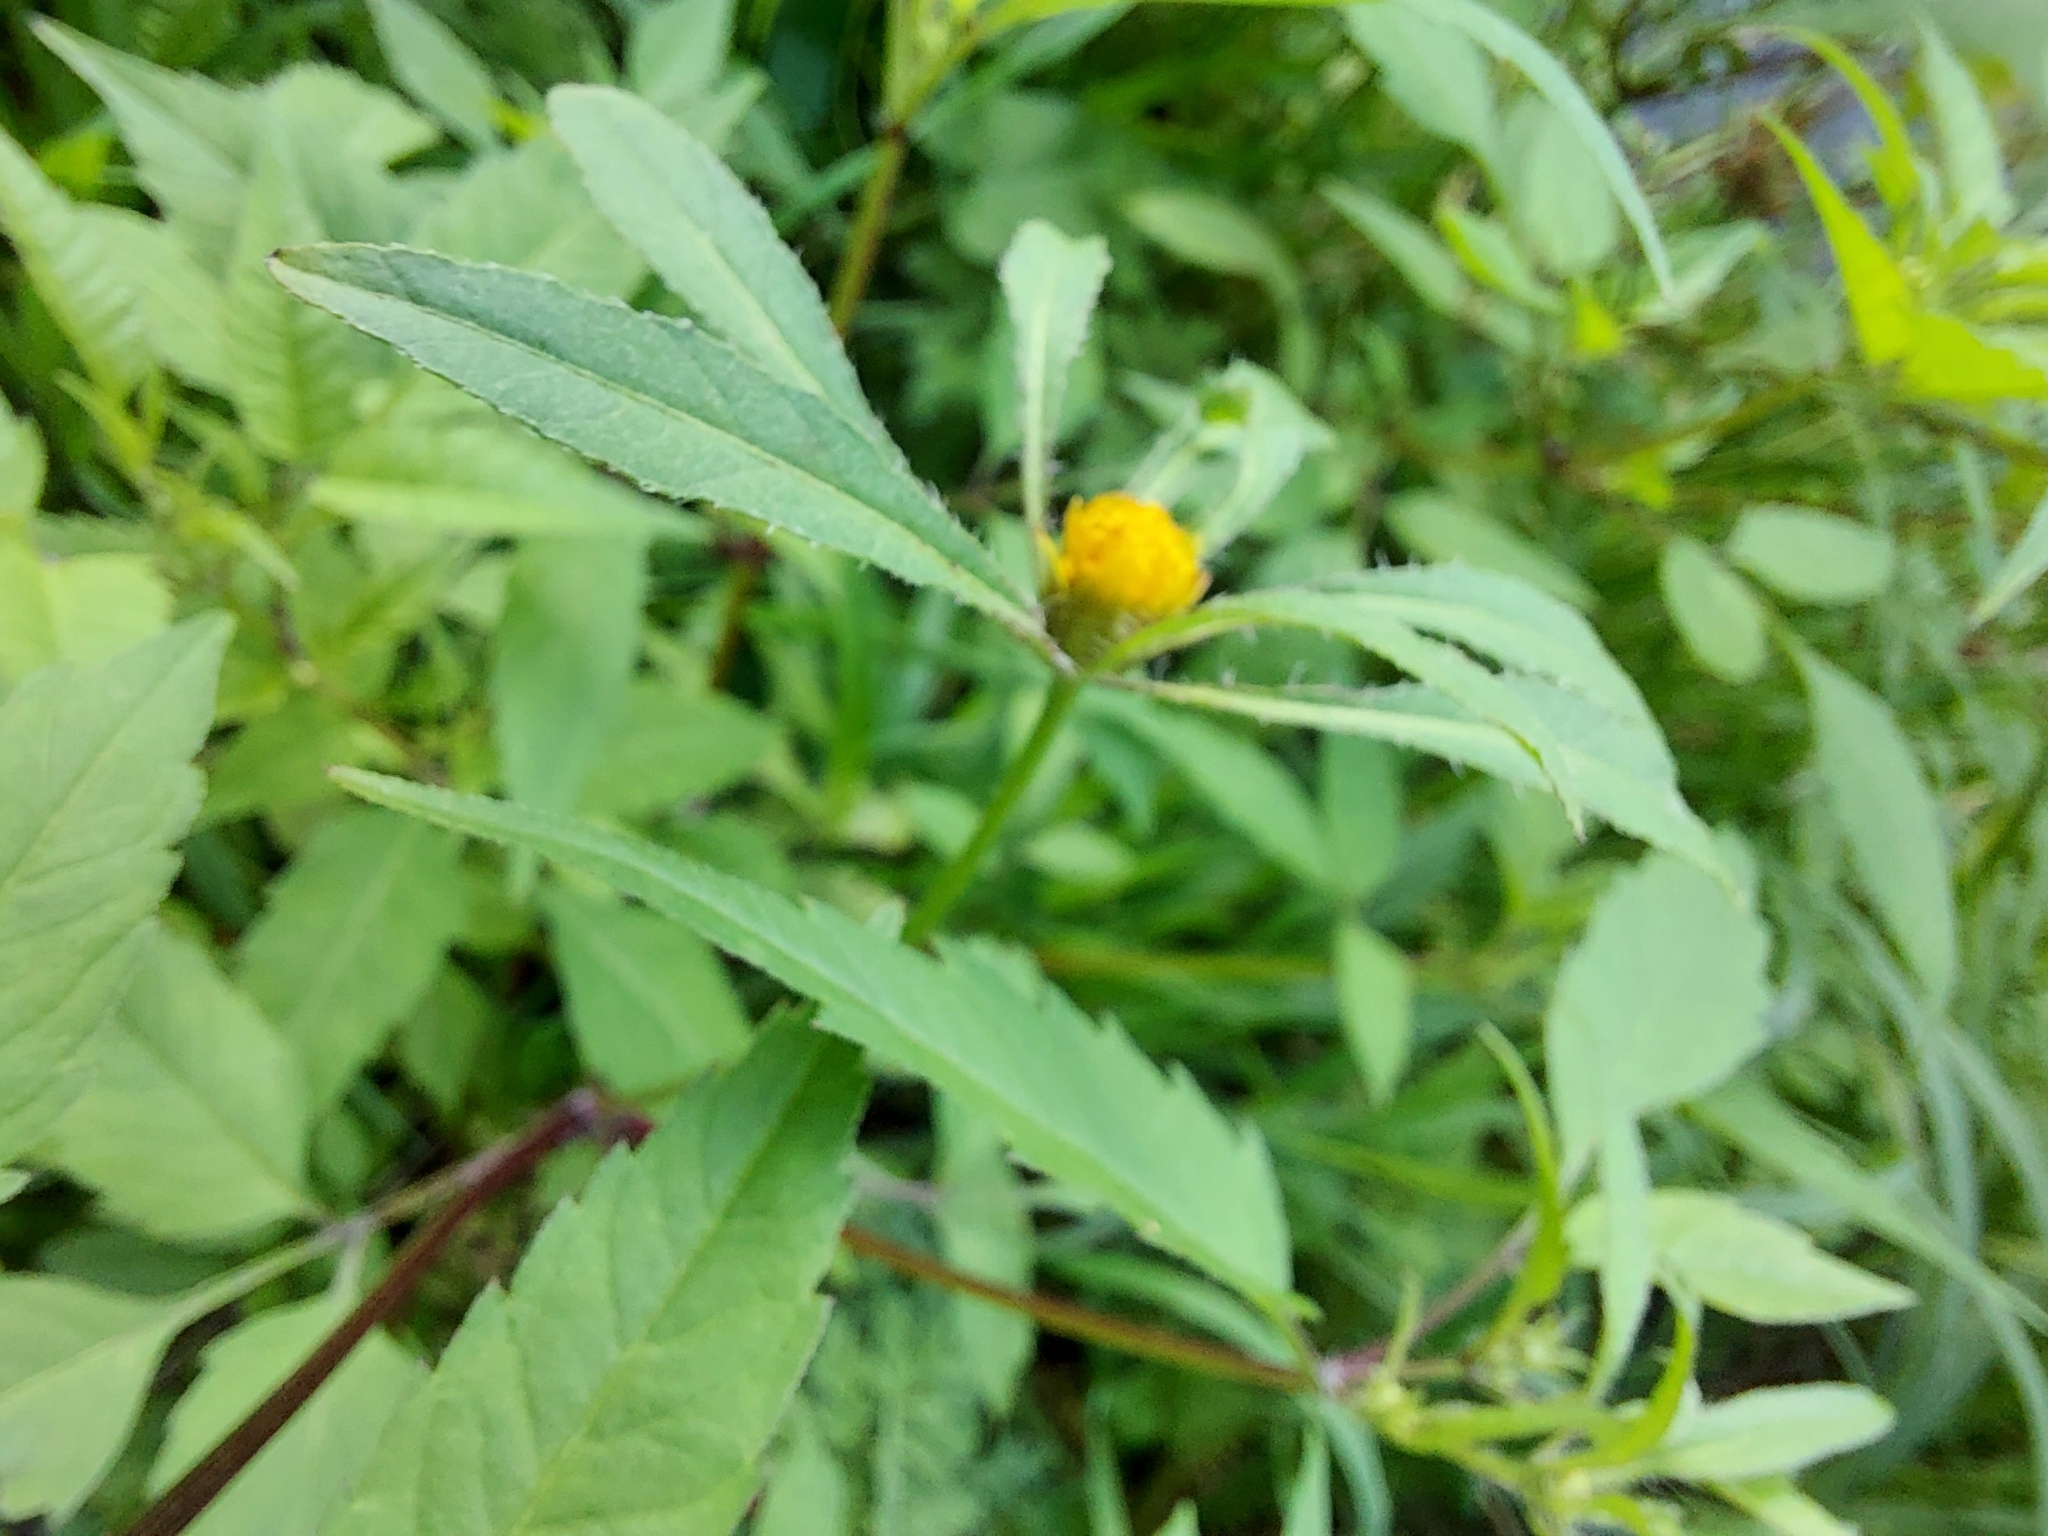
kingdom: Plantae
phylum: Tracheophyta
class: Magnoliopsida
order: Asterales
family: Asteraceae
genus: Bidens
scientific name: Bidens frondosa
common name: Beggarticks
